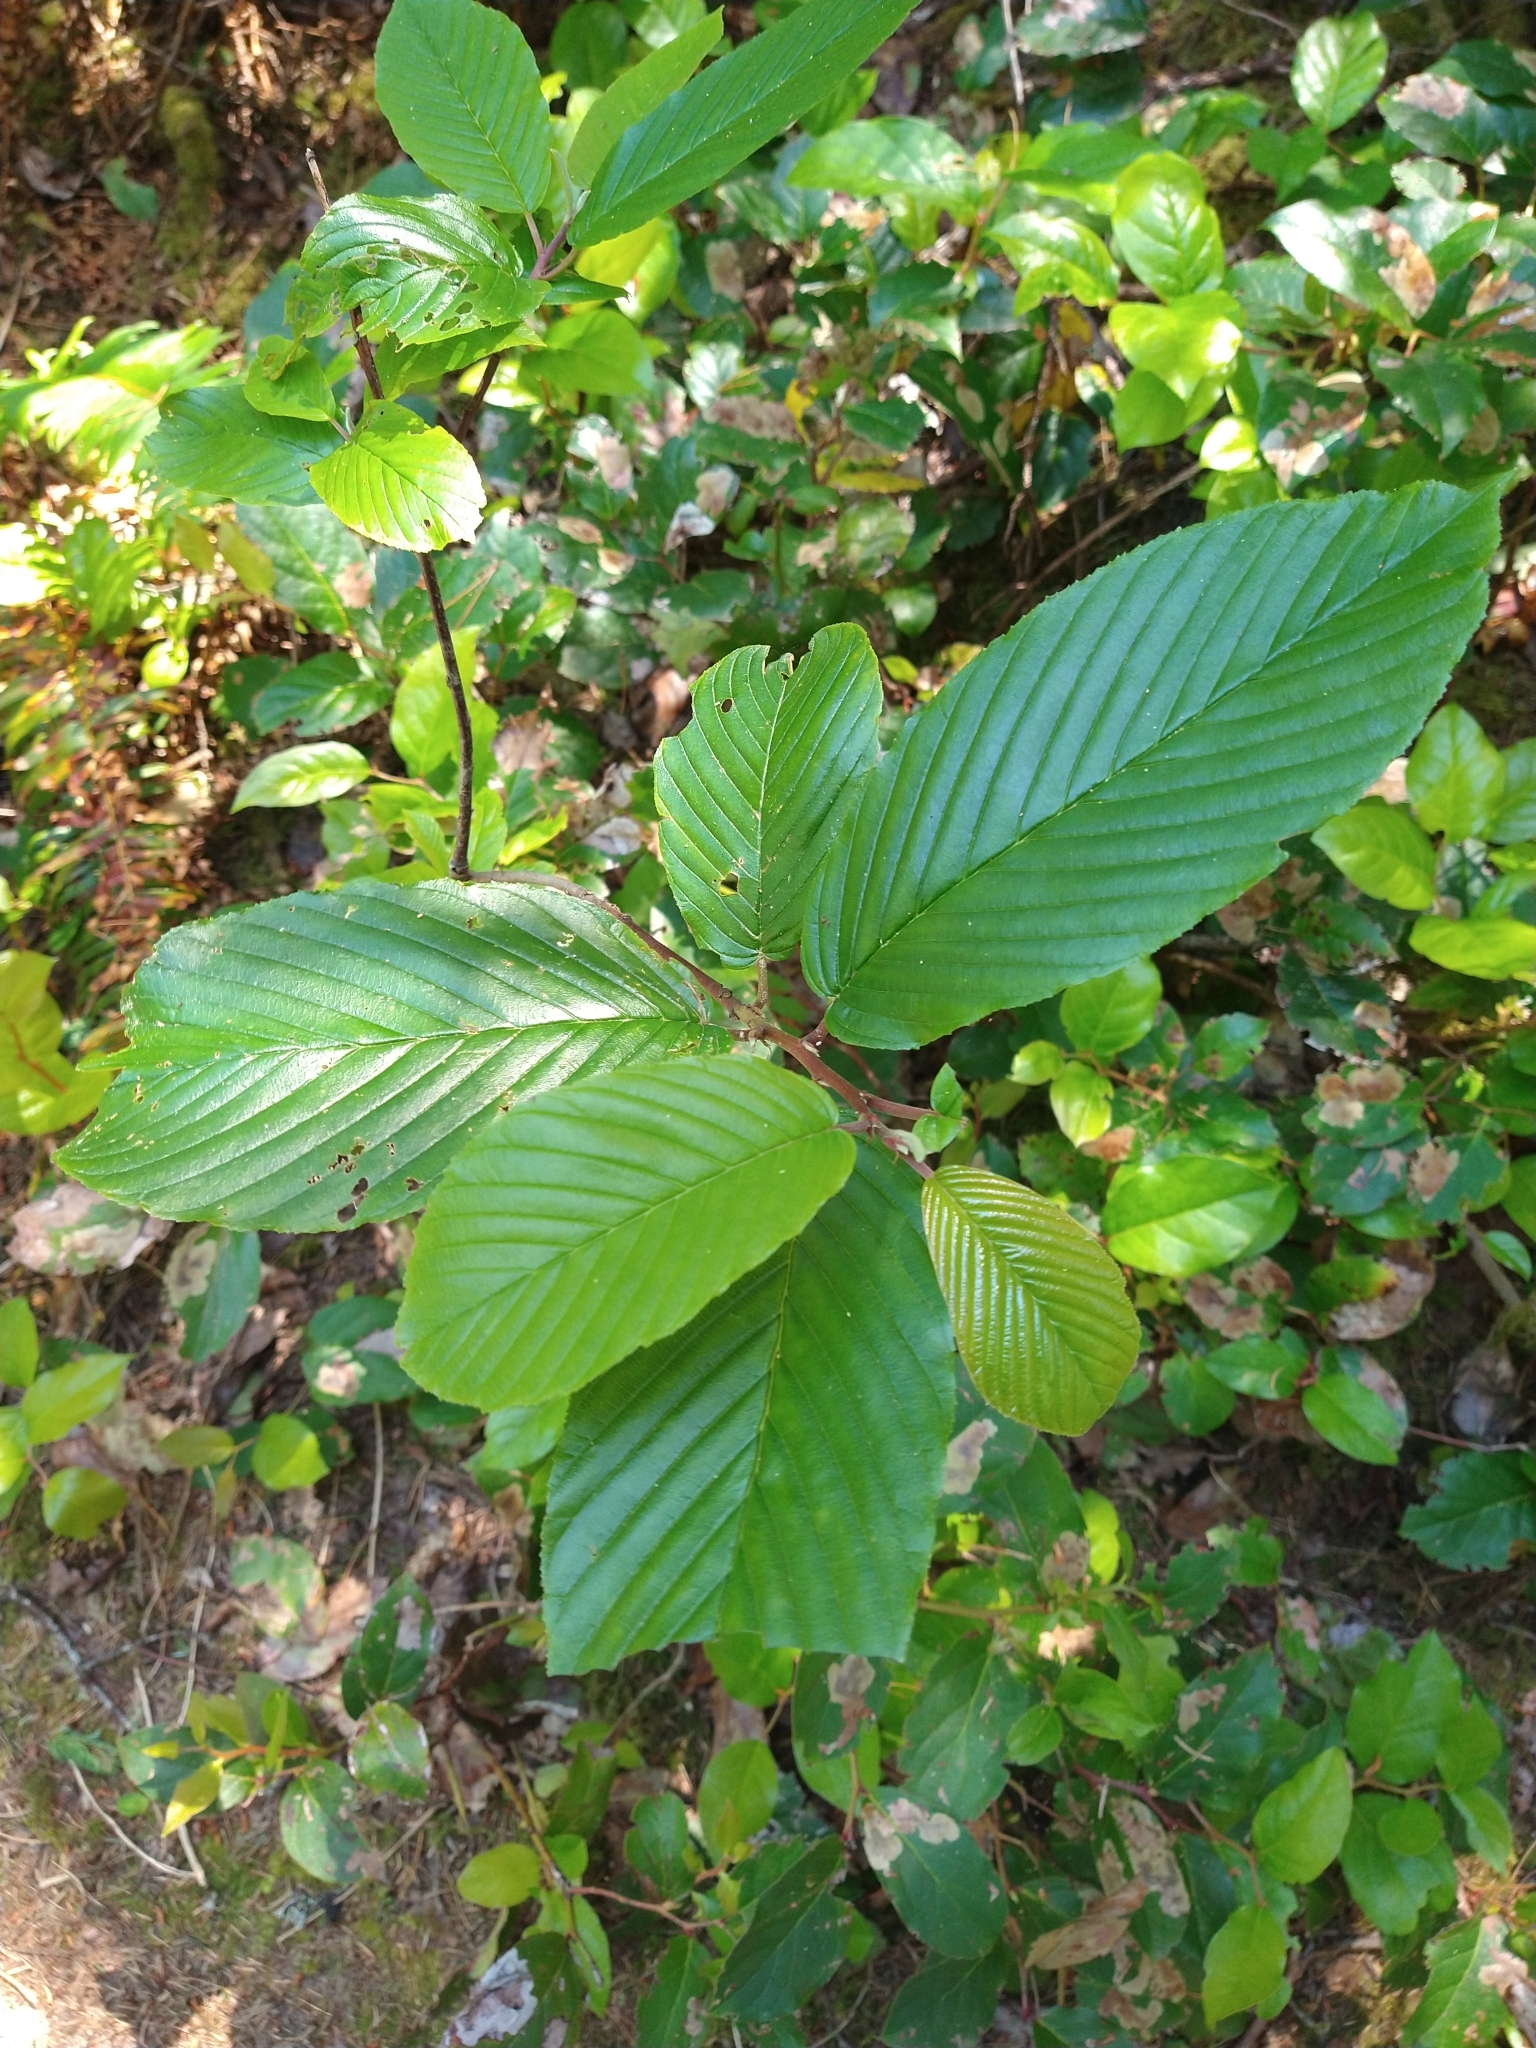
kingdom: Plantae
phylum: Tracheophyta
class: Magnoliopsida
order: Rosales
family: Rhamnaceae
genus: Frangula
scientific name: Frangula purshiana
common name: Cascara buckthorn
